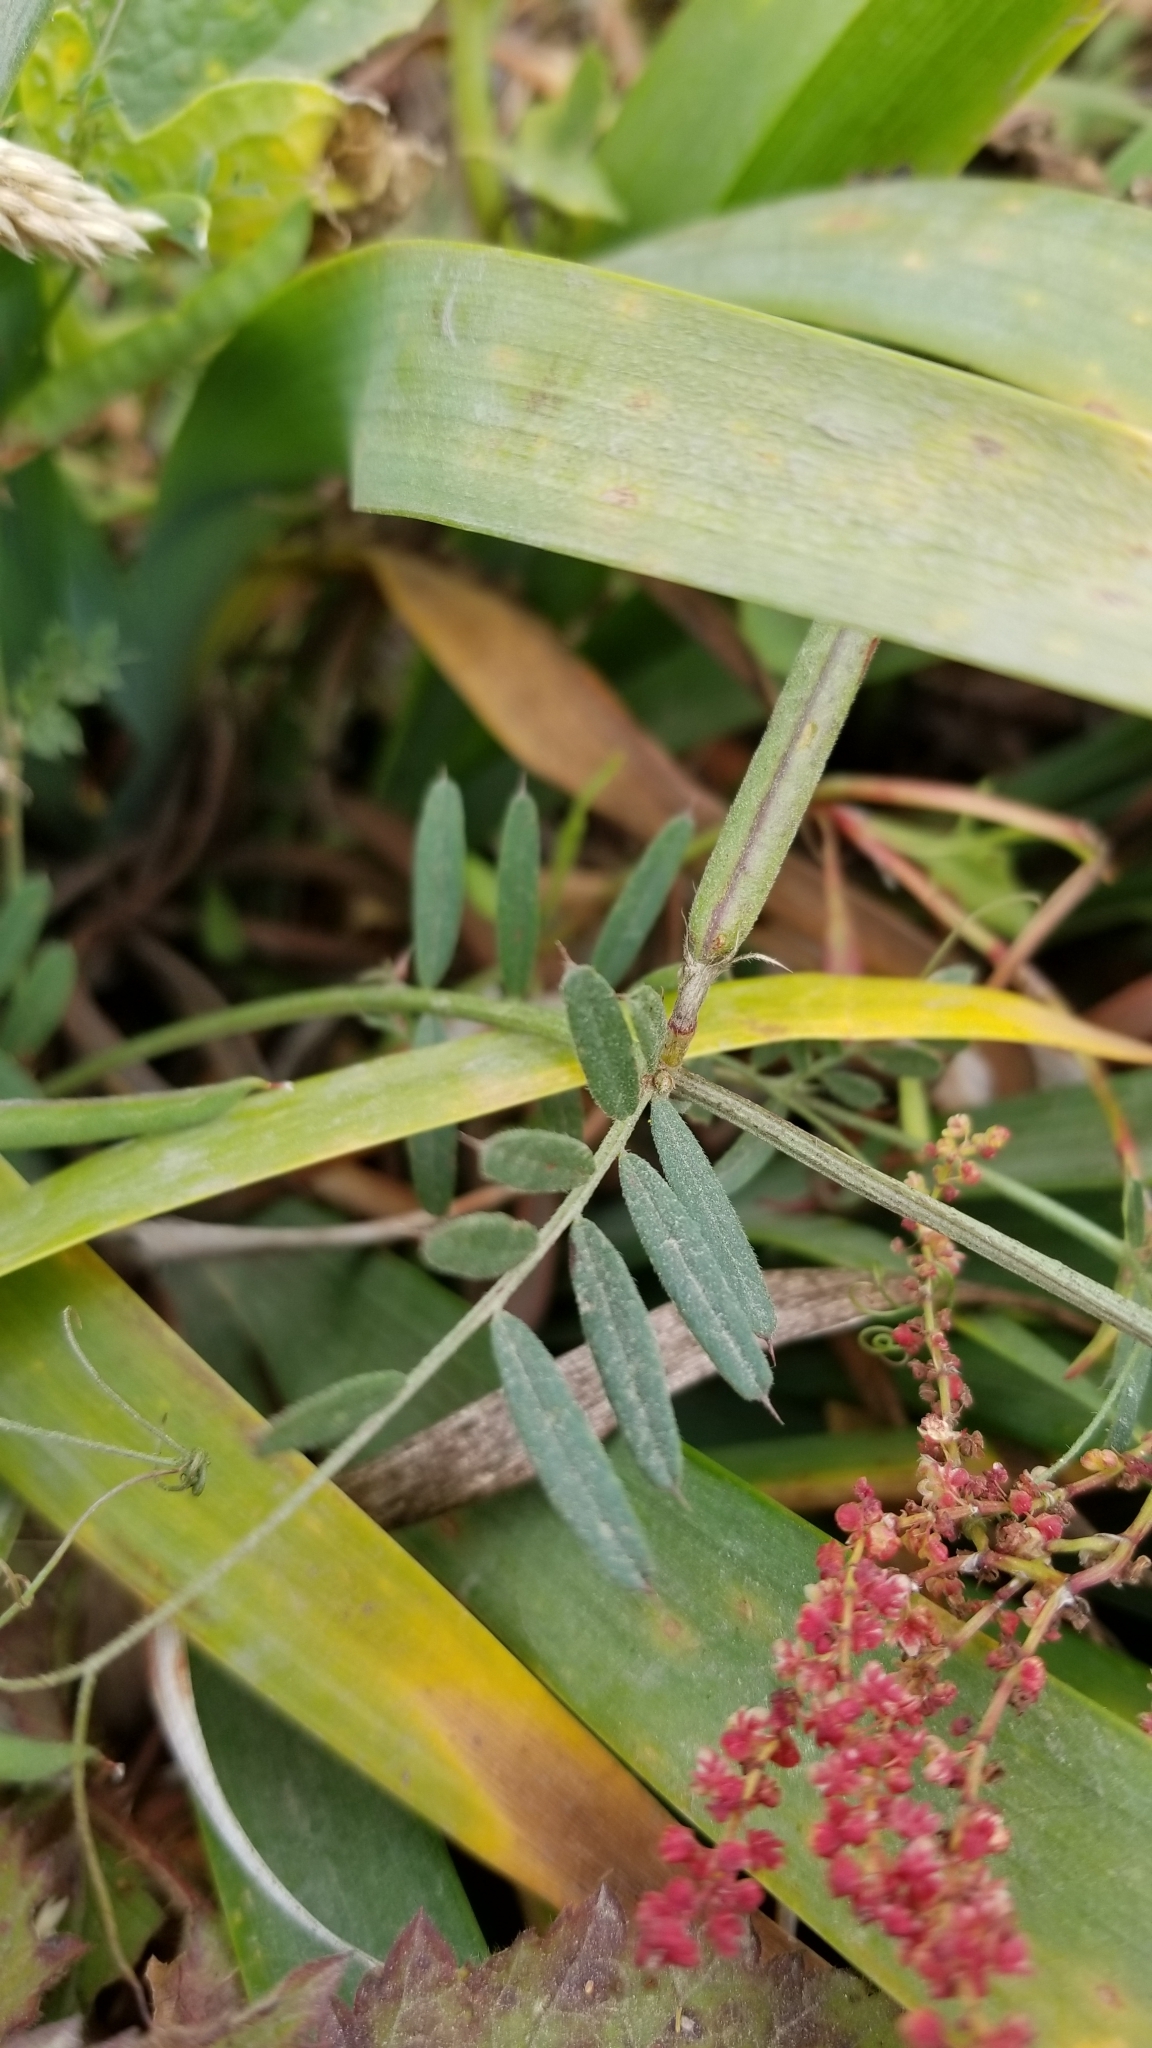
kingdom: Plantae
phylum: Tracheophyta
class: Magnoliopsida
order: Fabales
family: Fabaceae
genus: Vicia
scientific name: Vicia sativa
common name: Garden vetch
